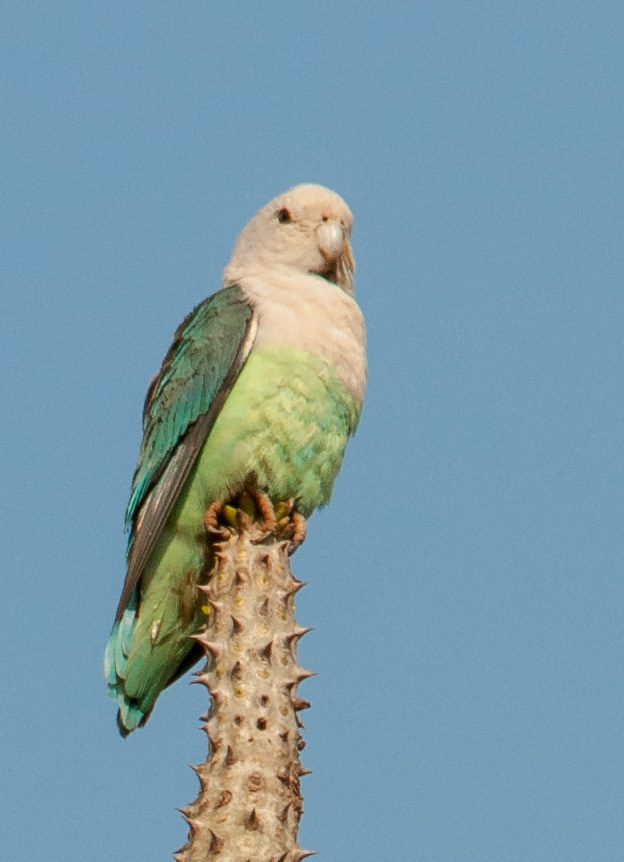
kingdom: Animalia
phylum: Chordata
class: Aves
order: Psittaciformes
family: Psittacidae
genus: Agapornis
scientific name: Agapornis canus
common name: Grey-headed lovebird
